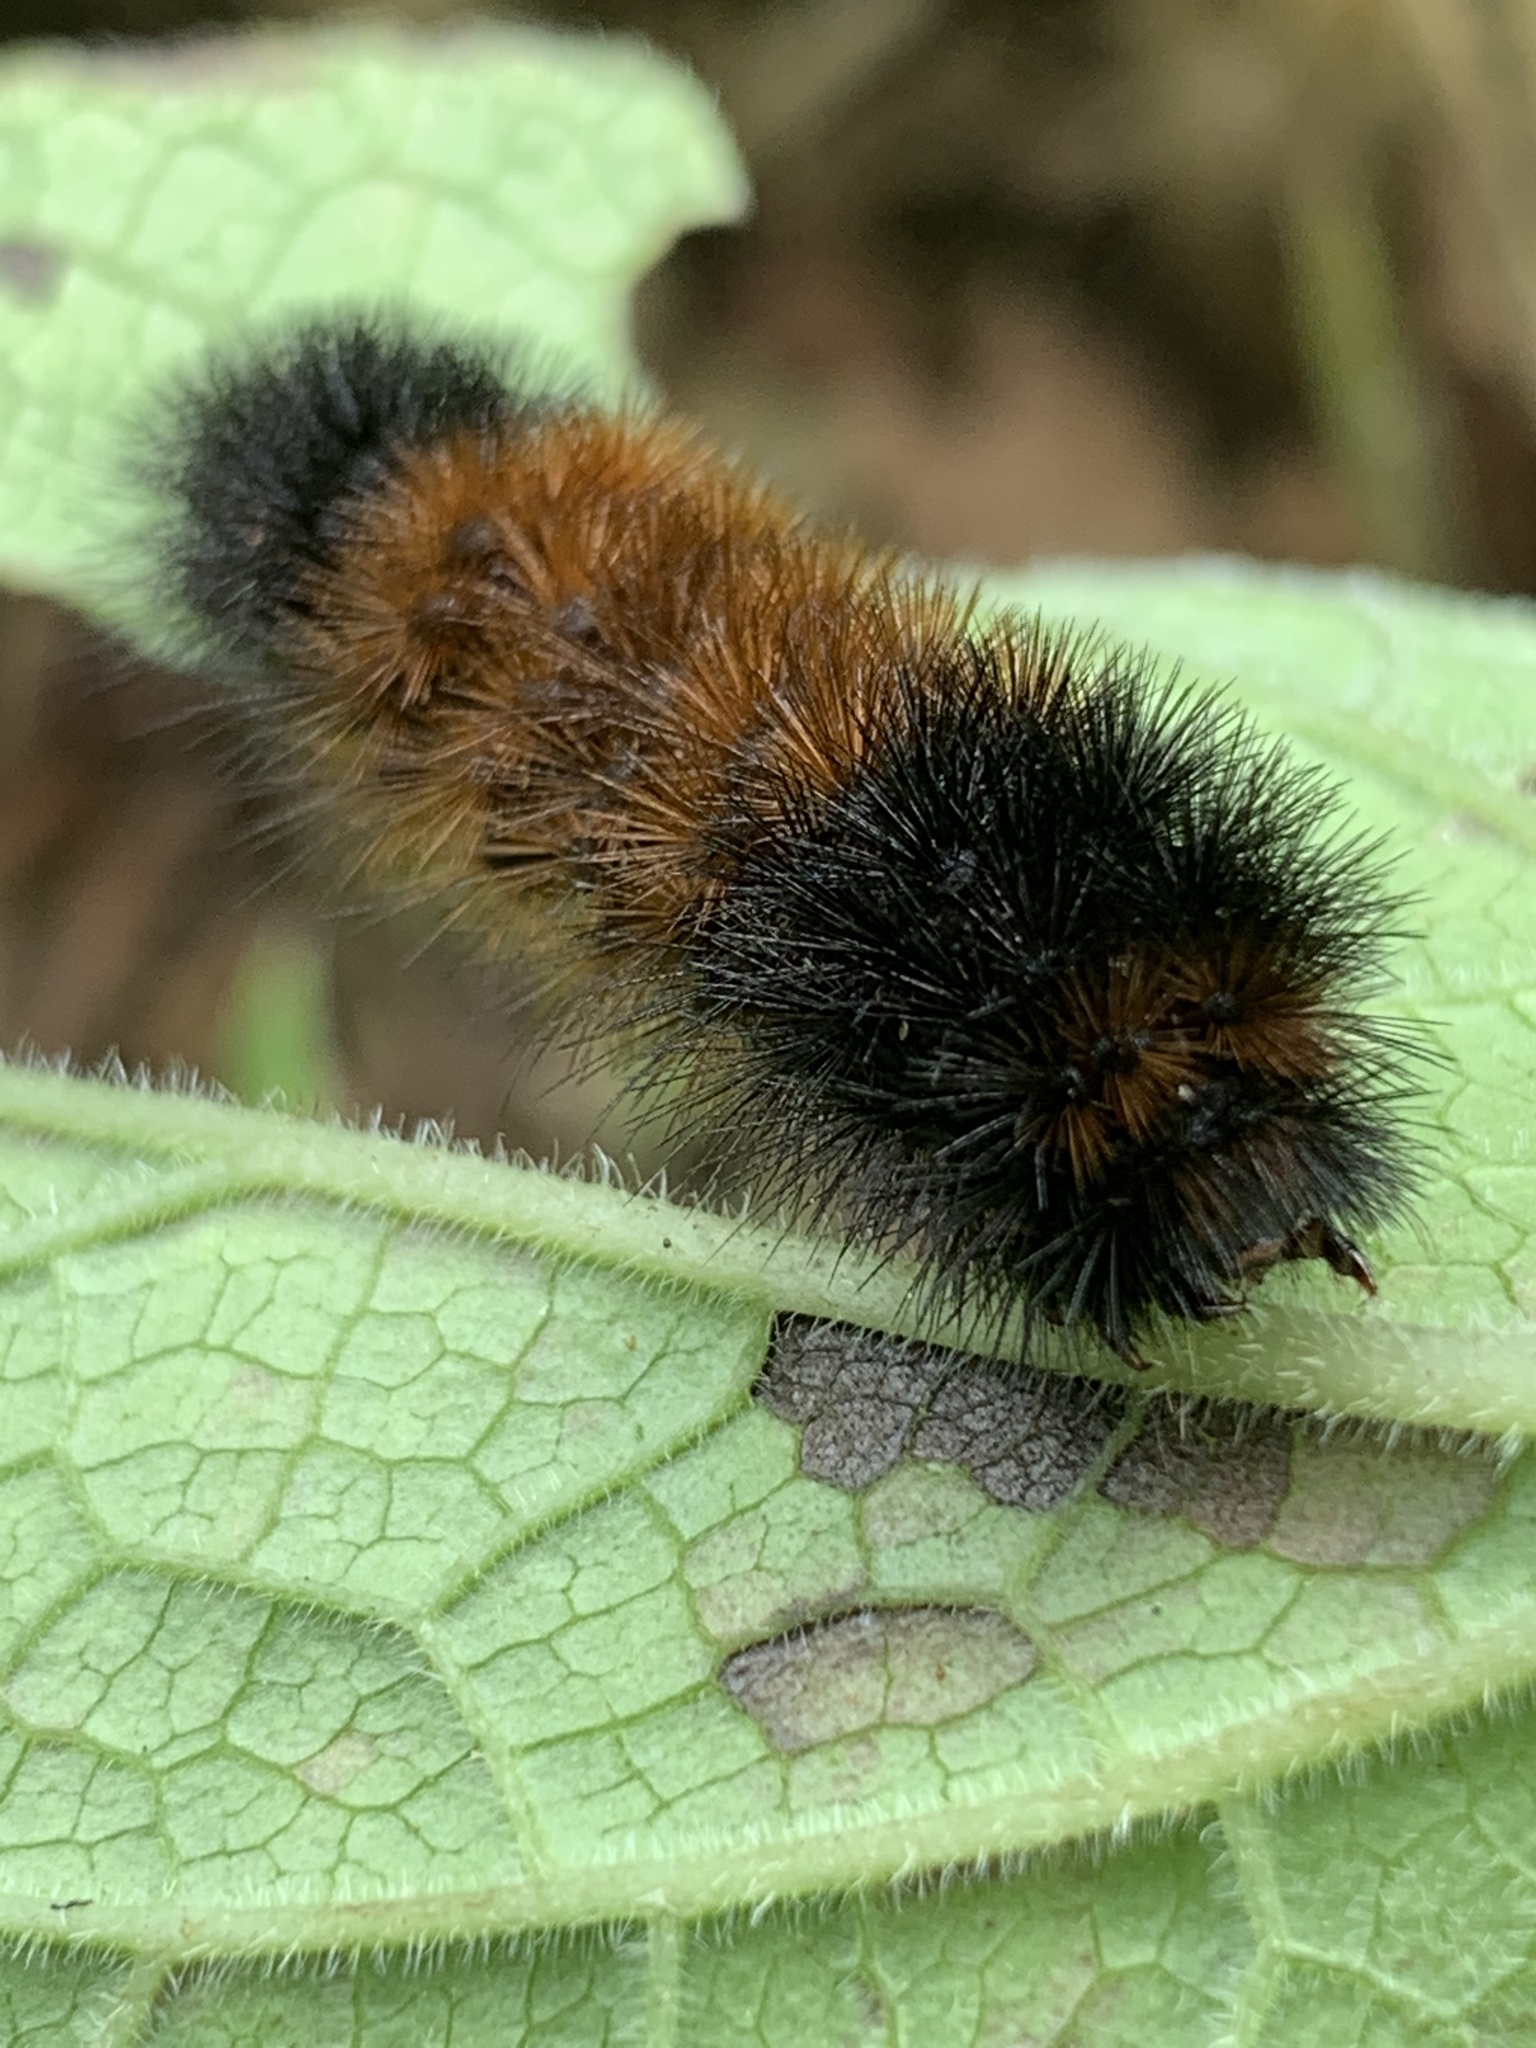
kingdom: Animalia
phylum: Arthropoda
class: Insecta
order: Lepidoptera
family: Erebidae
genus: Pyrrharctia
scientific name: Pyrrharctia isabella
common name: Isabella tiger moth
